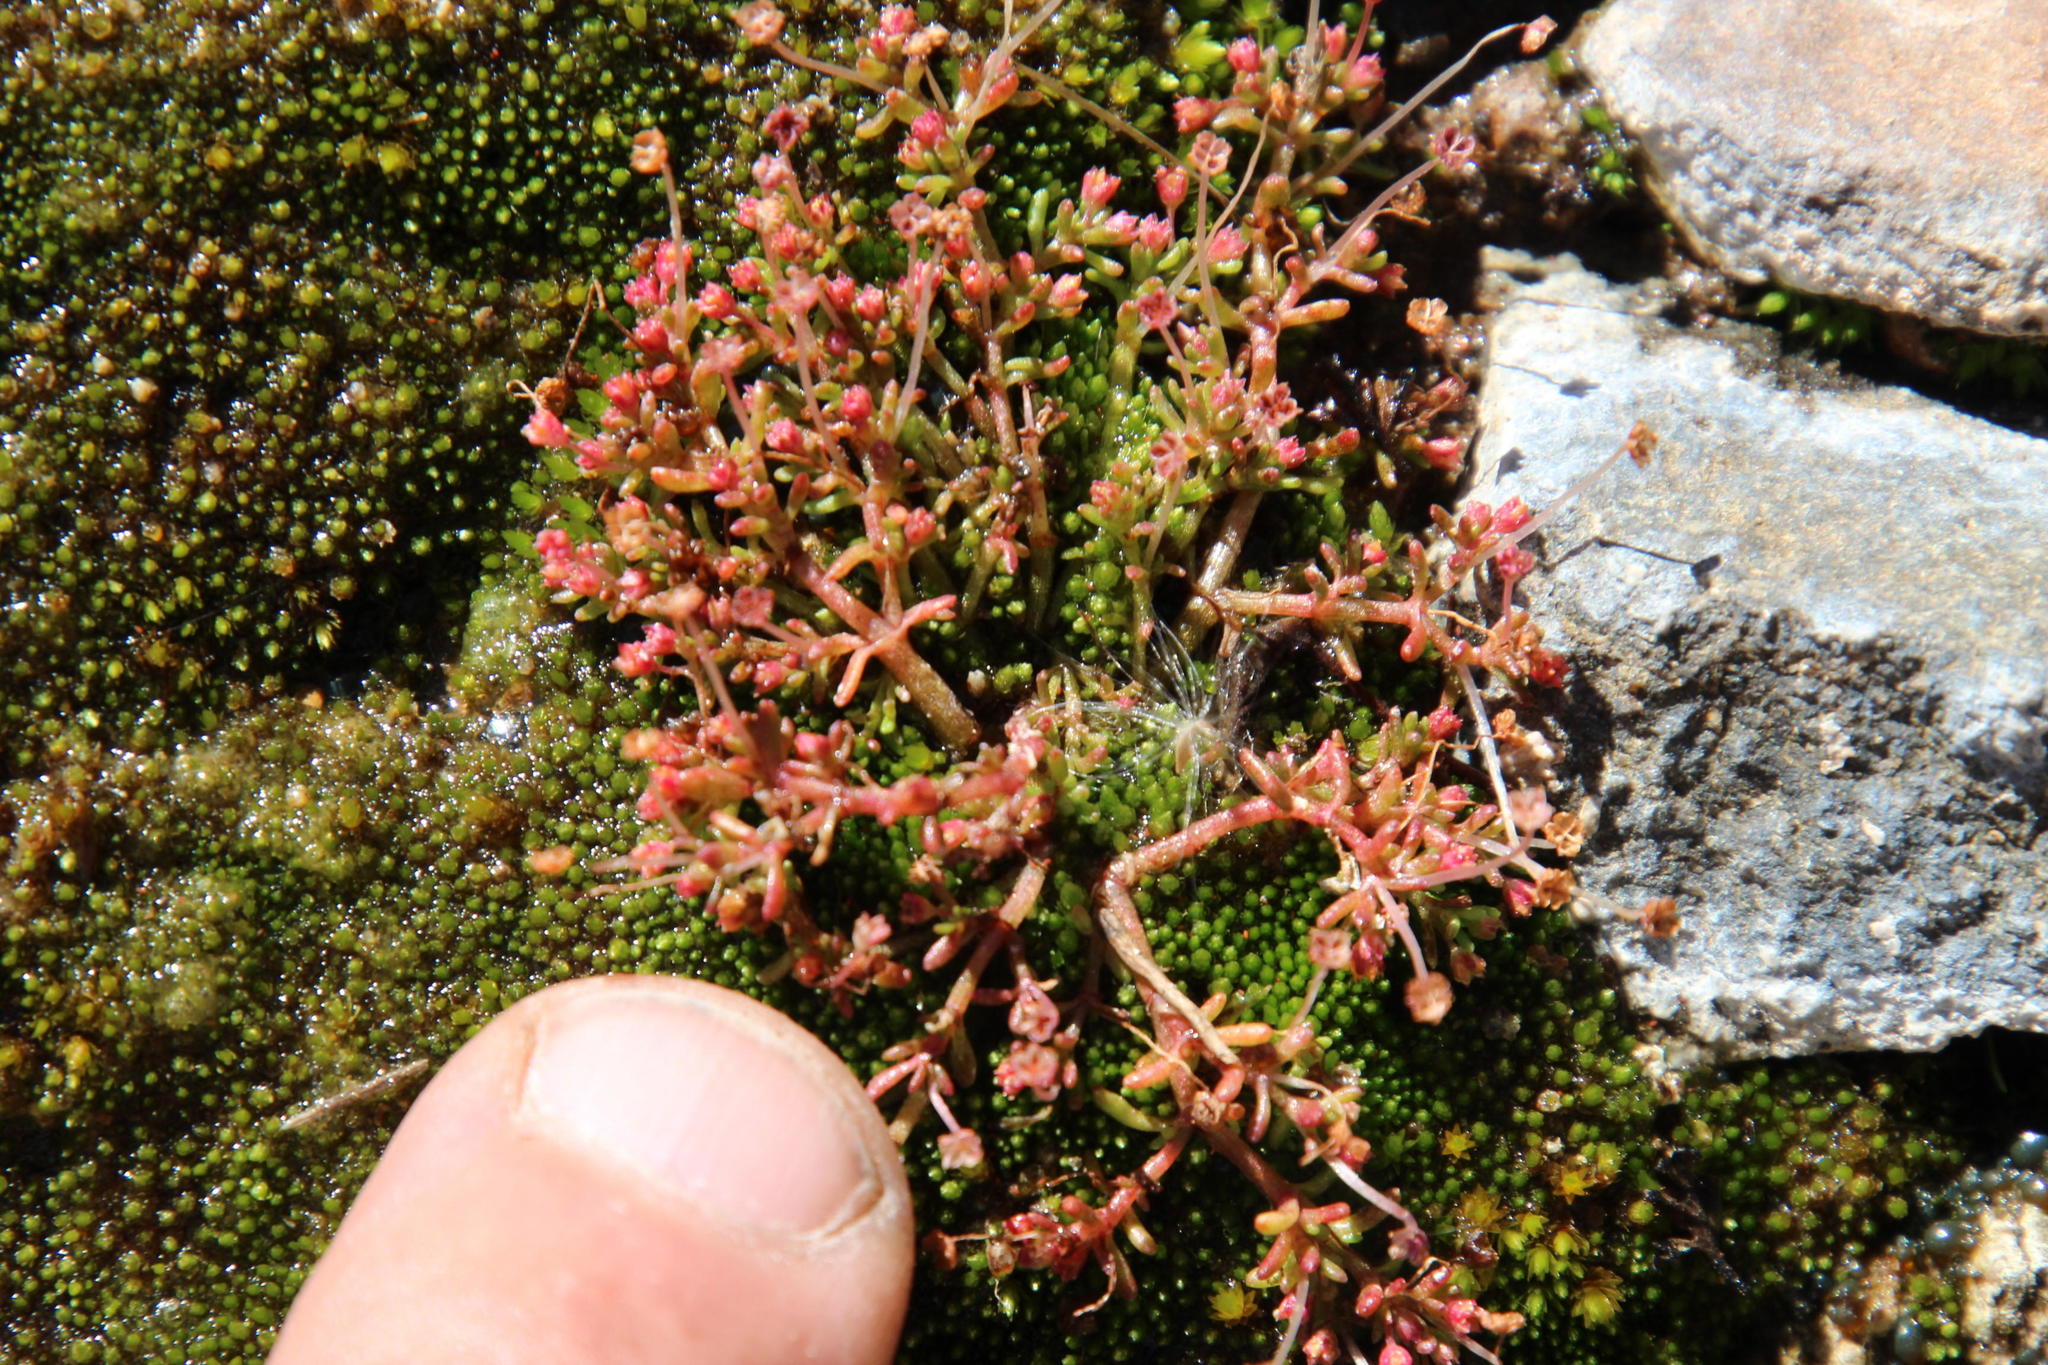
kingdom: Plantae
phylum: Tracheophyta
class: Magnoliopsida
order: Saxifragales
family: Crassulaceae
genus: Crassula
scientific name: Crassula vaillantii
